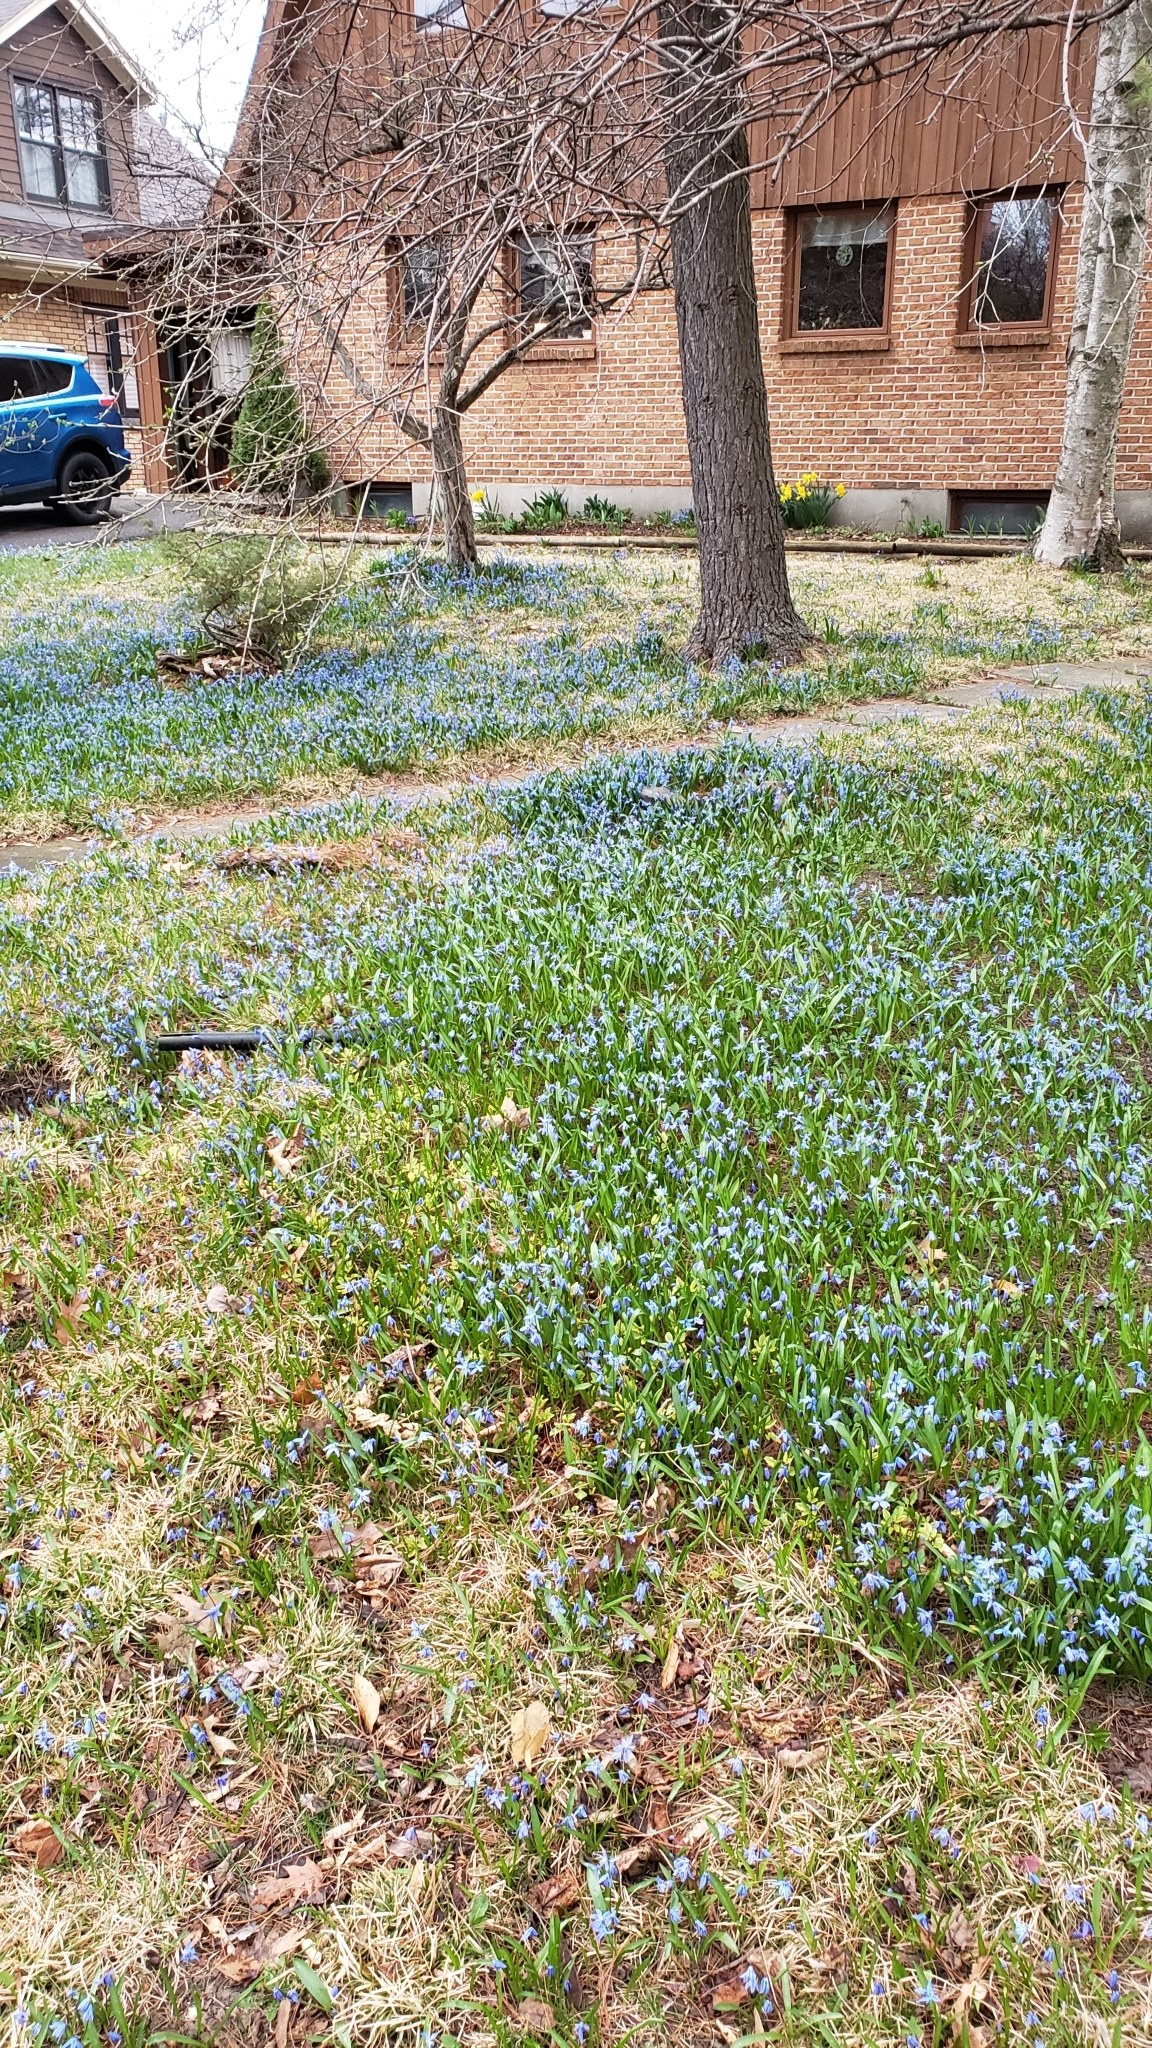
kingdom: Plantae
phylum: Tracheophyta
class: Liliopsida
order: Asparagales
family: Asparagaceae
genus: Scilla
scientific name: Scilla siberica
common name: Siberian squill
